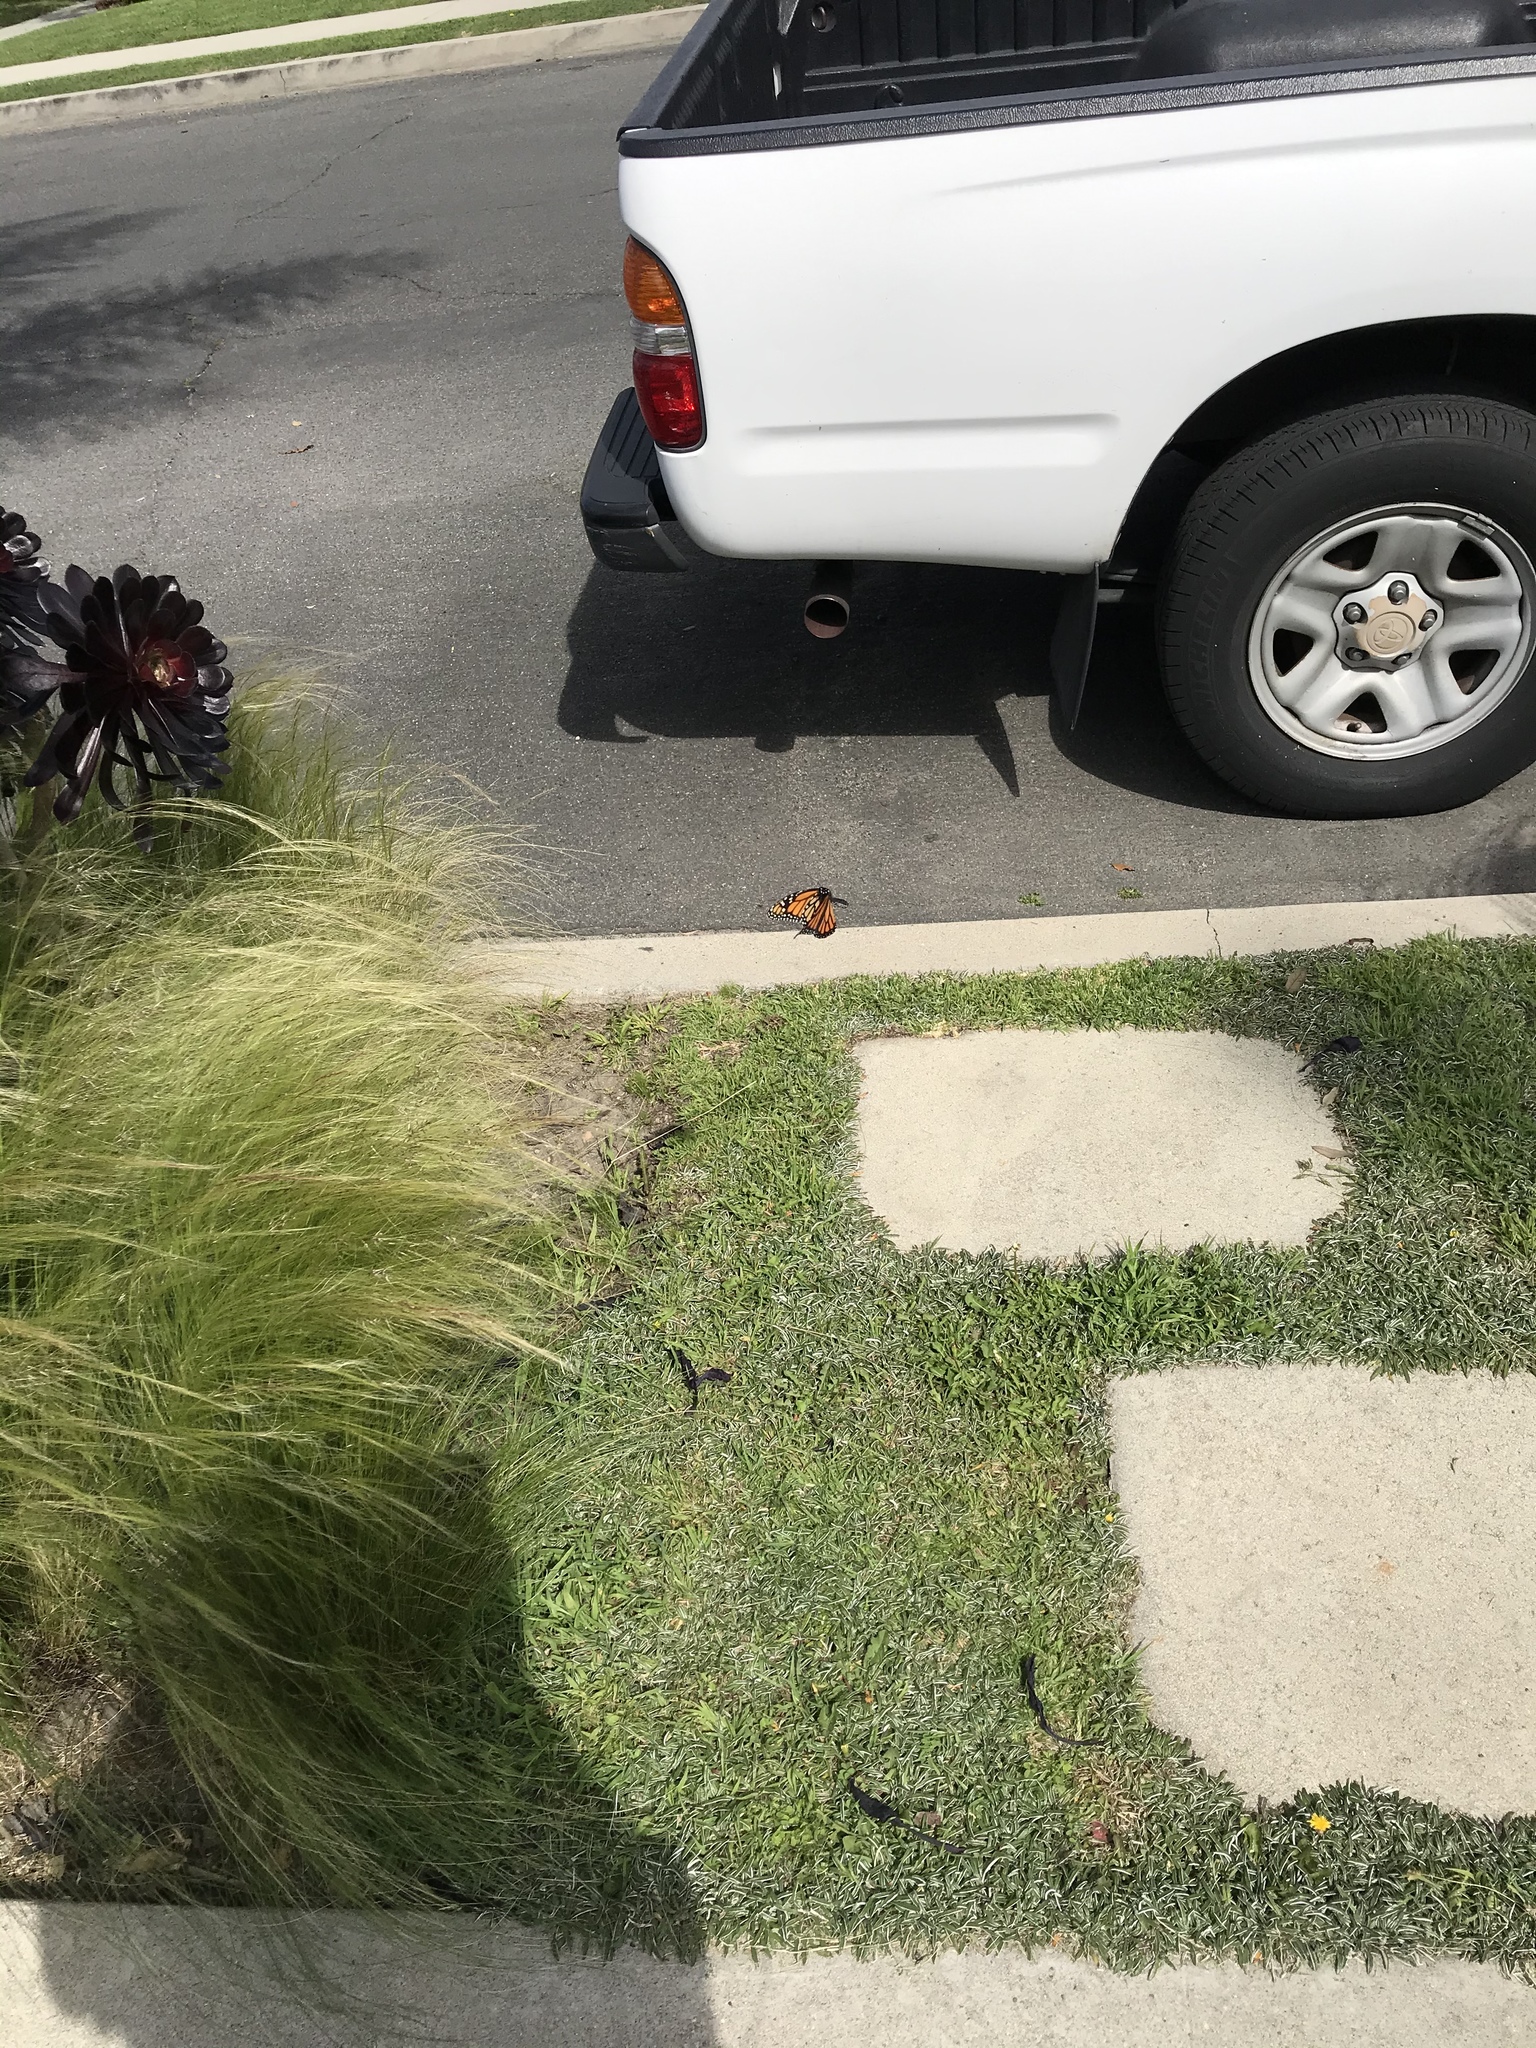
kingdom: Animalia
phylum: Arthropoda
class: Insecta
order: Lepidoptera
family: Nymphalidae
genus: Danaus
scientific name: Danaus plexippus
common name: Monarch
